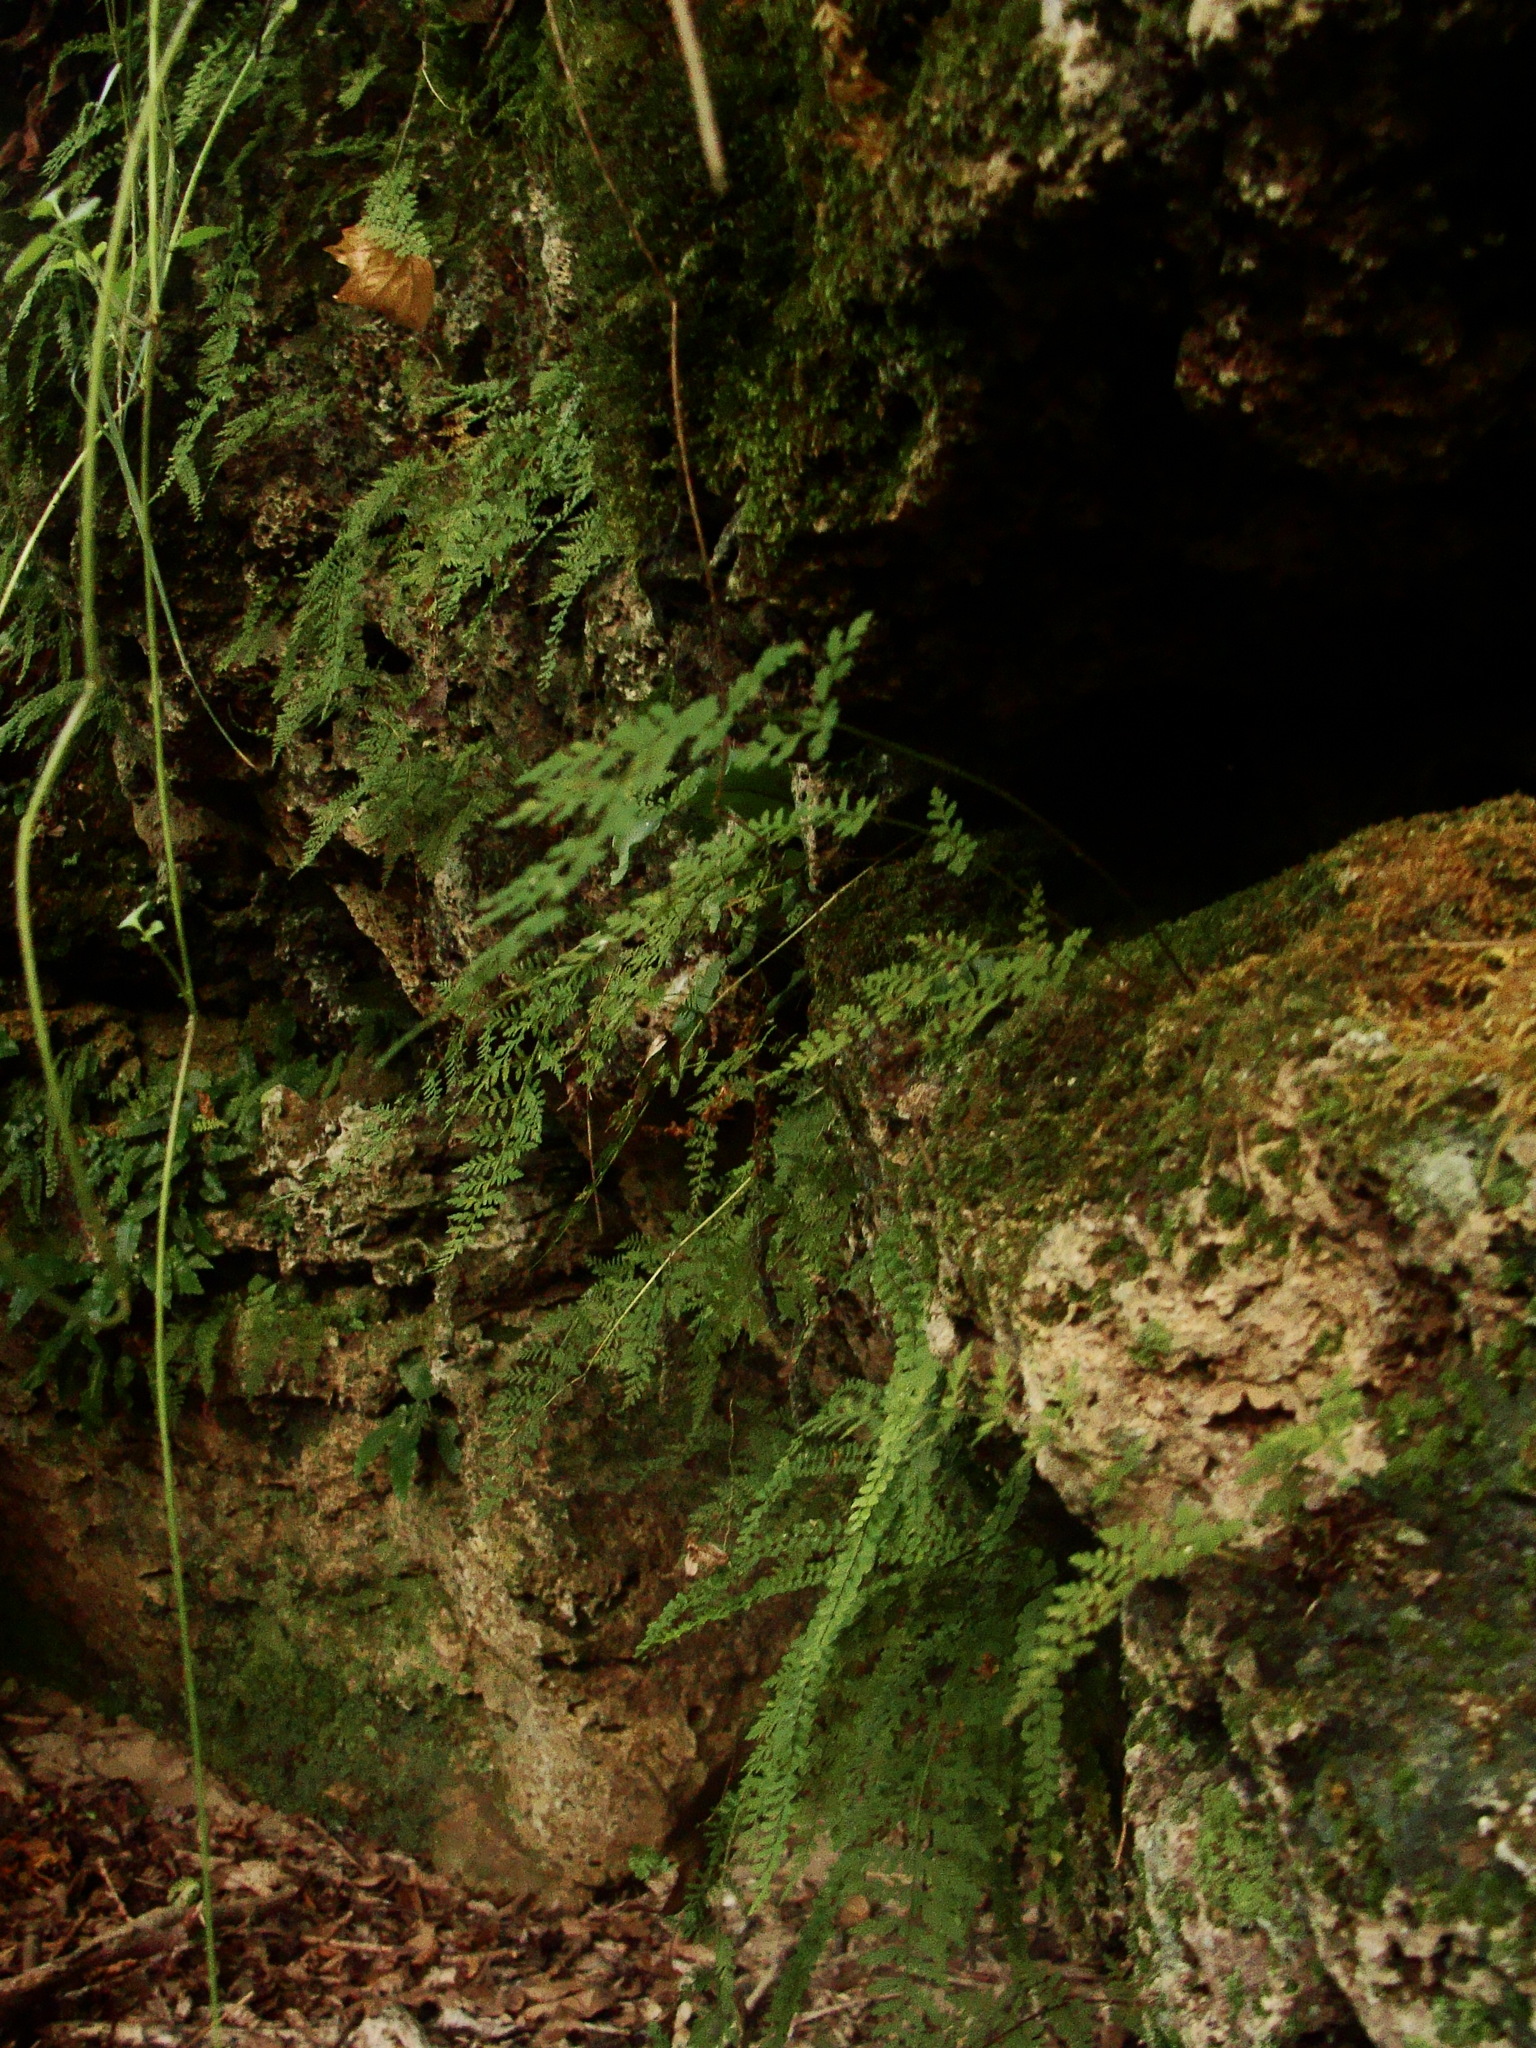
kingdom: Plantae
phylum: Tracheophyta
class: Polypodiopsida
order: Polypodiales
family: Cystopteridaceae
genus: Cystopteris
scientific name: Cystopteris fragilis
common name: Brittle bladder fern
